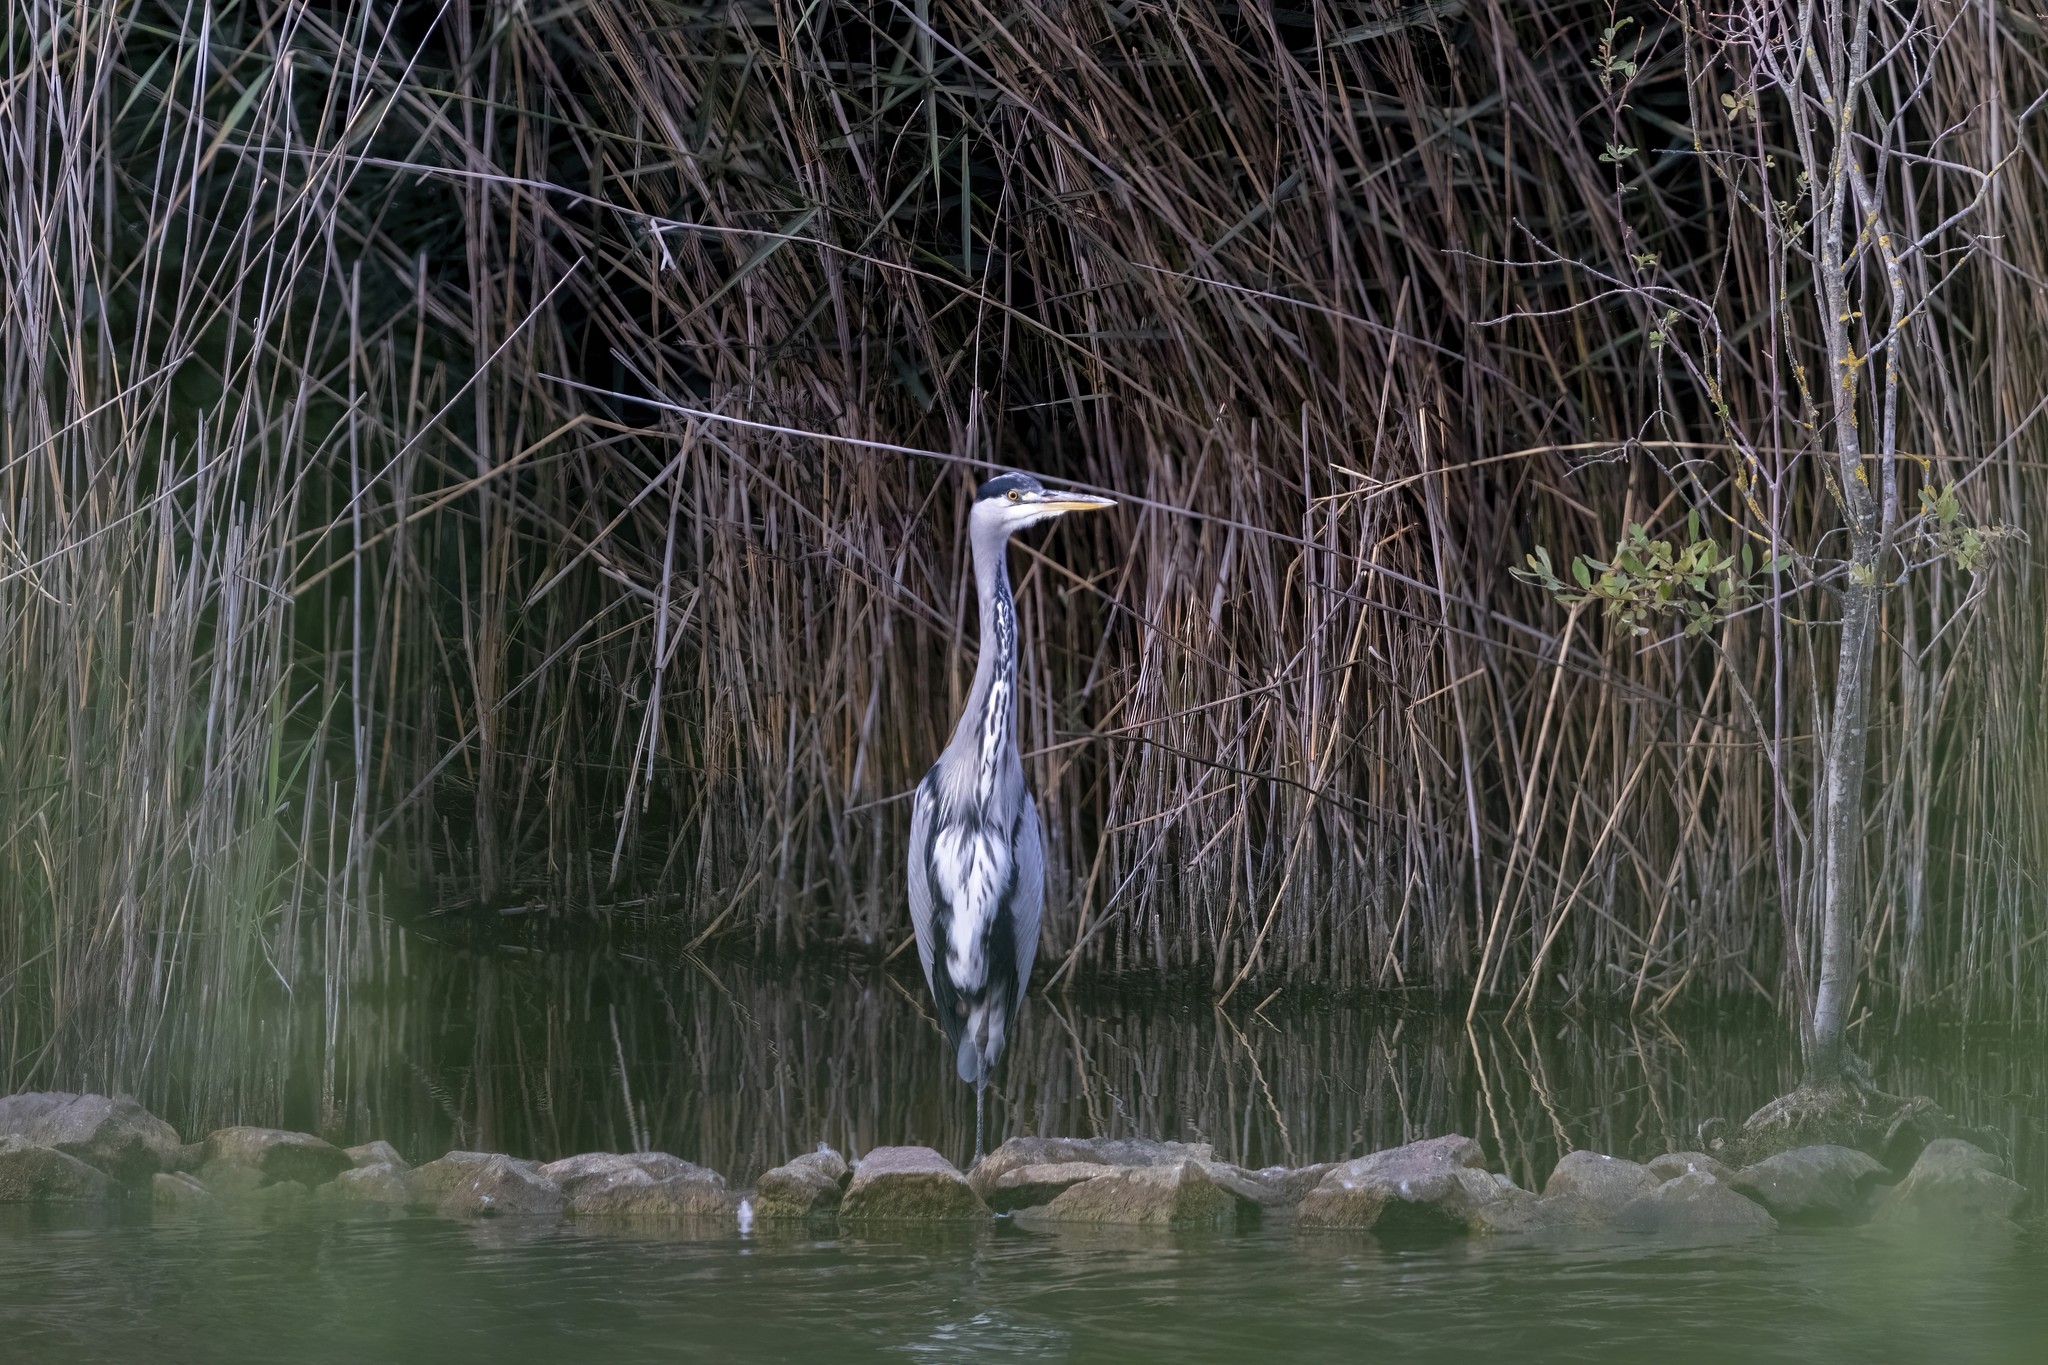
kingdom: Animalia
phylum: Chordata
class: Aves
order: Pelecaniformes
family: Ardeidae
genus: Ardea
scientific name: Ardea cinerea
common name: Grey heron
